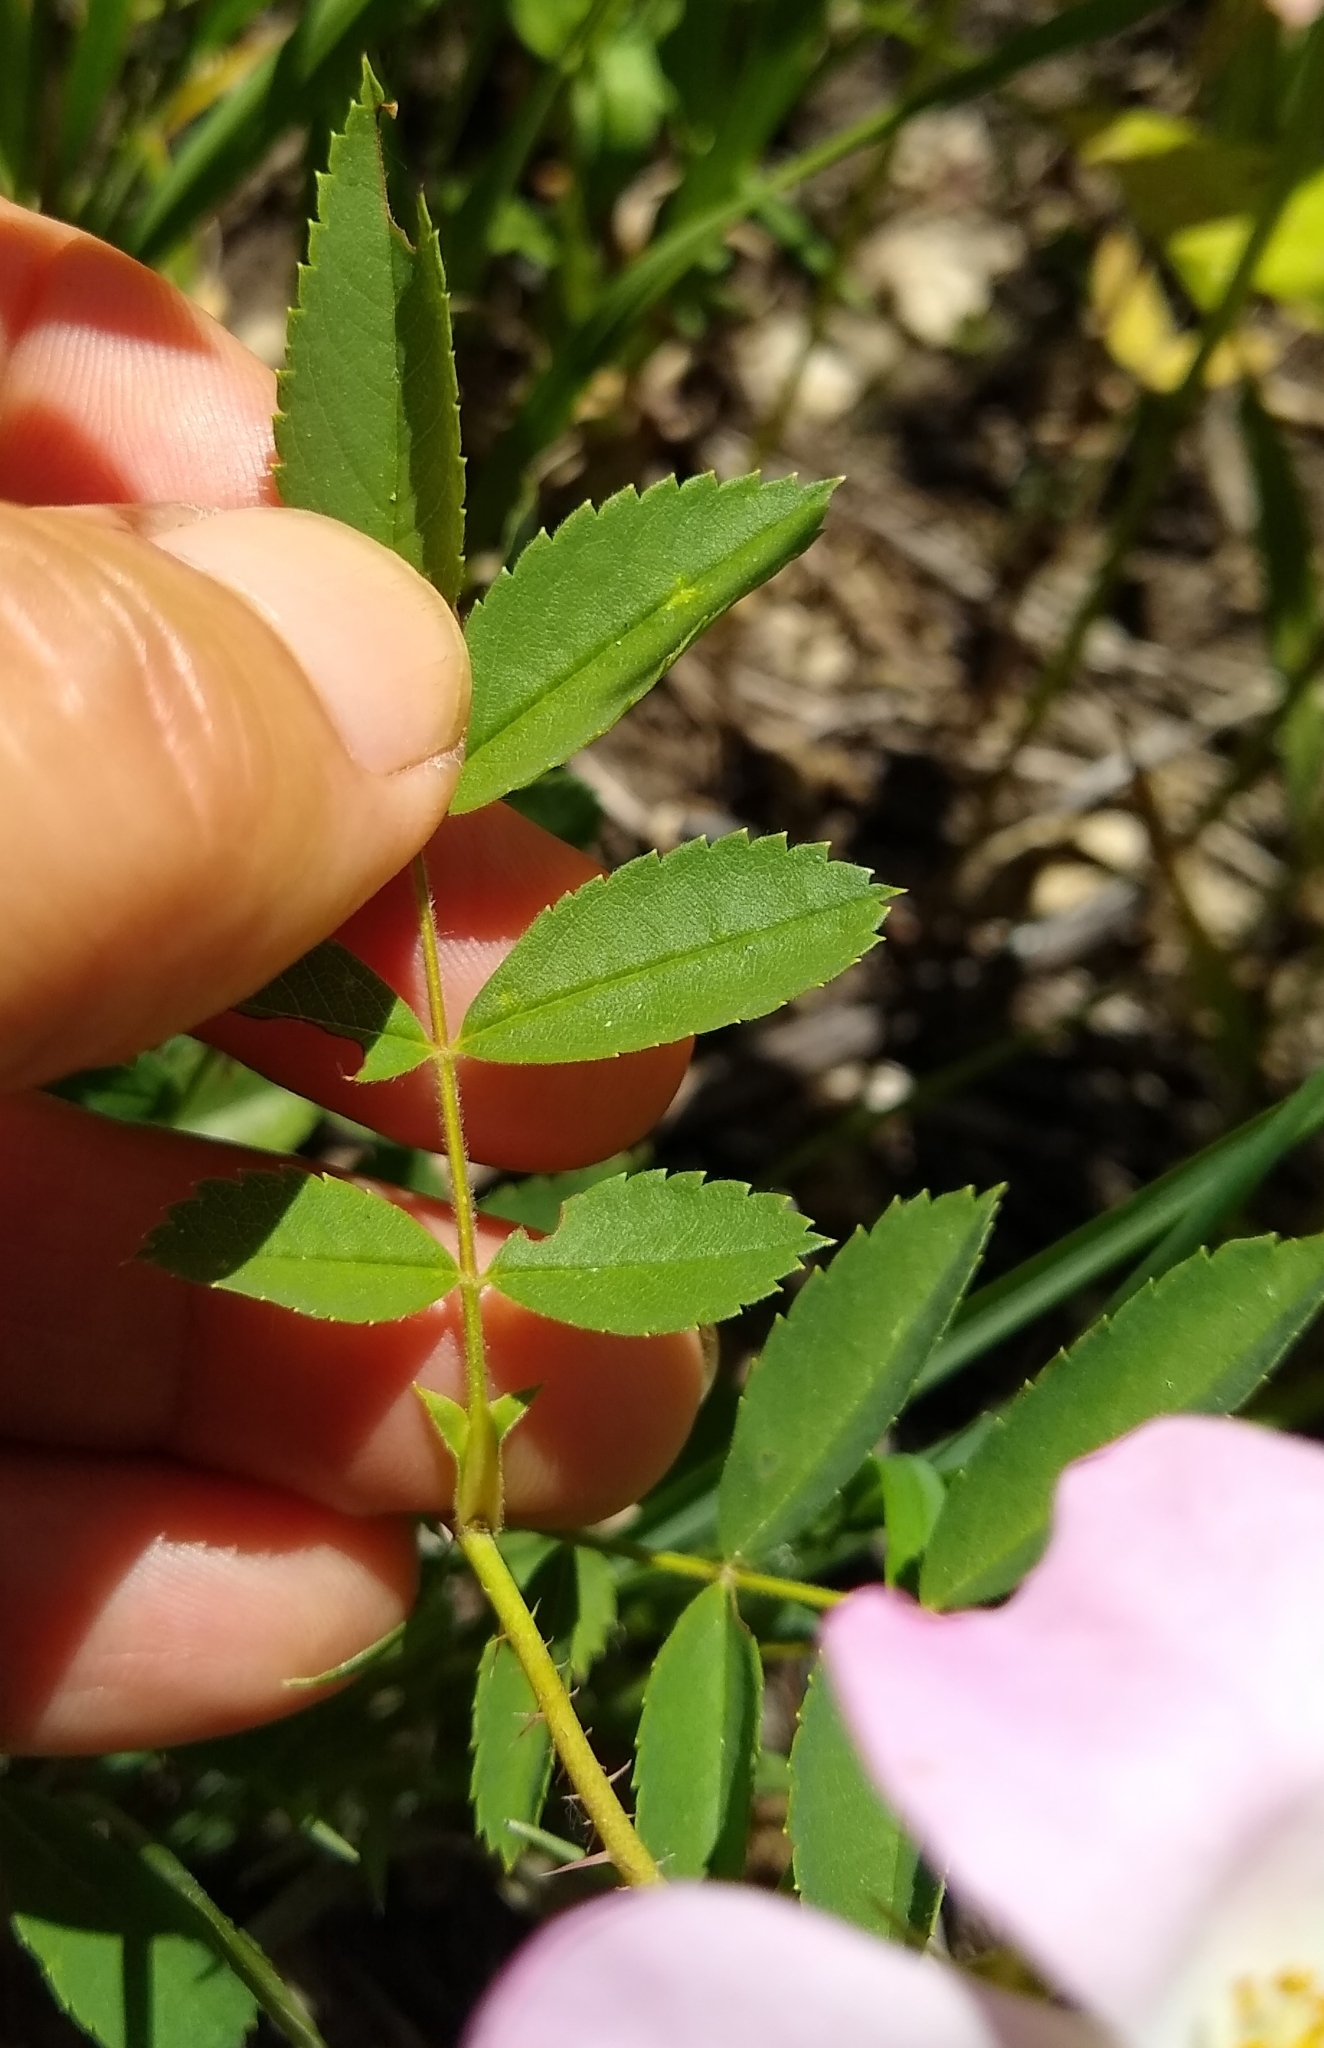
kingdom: Plantae
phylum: Tracheophyta
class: Magnoliopsida
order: Rosales
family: Rosaceae
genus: Rosa
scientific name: Rosa carolina
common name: Pasture rose
